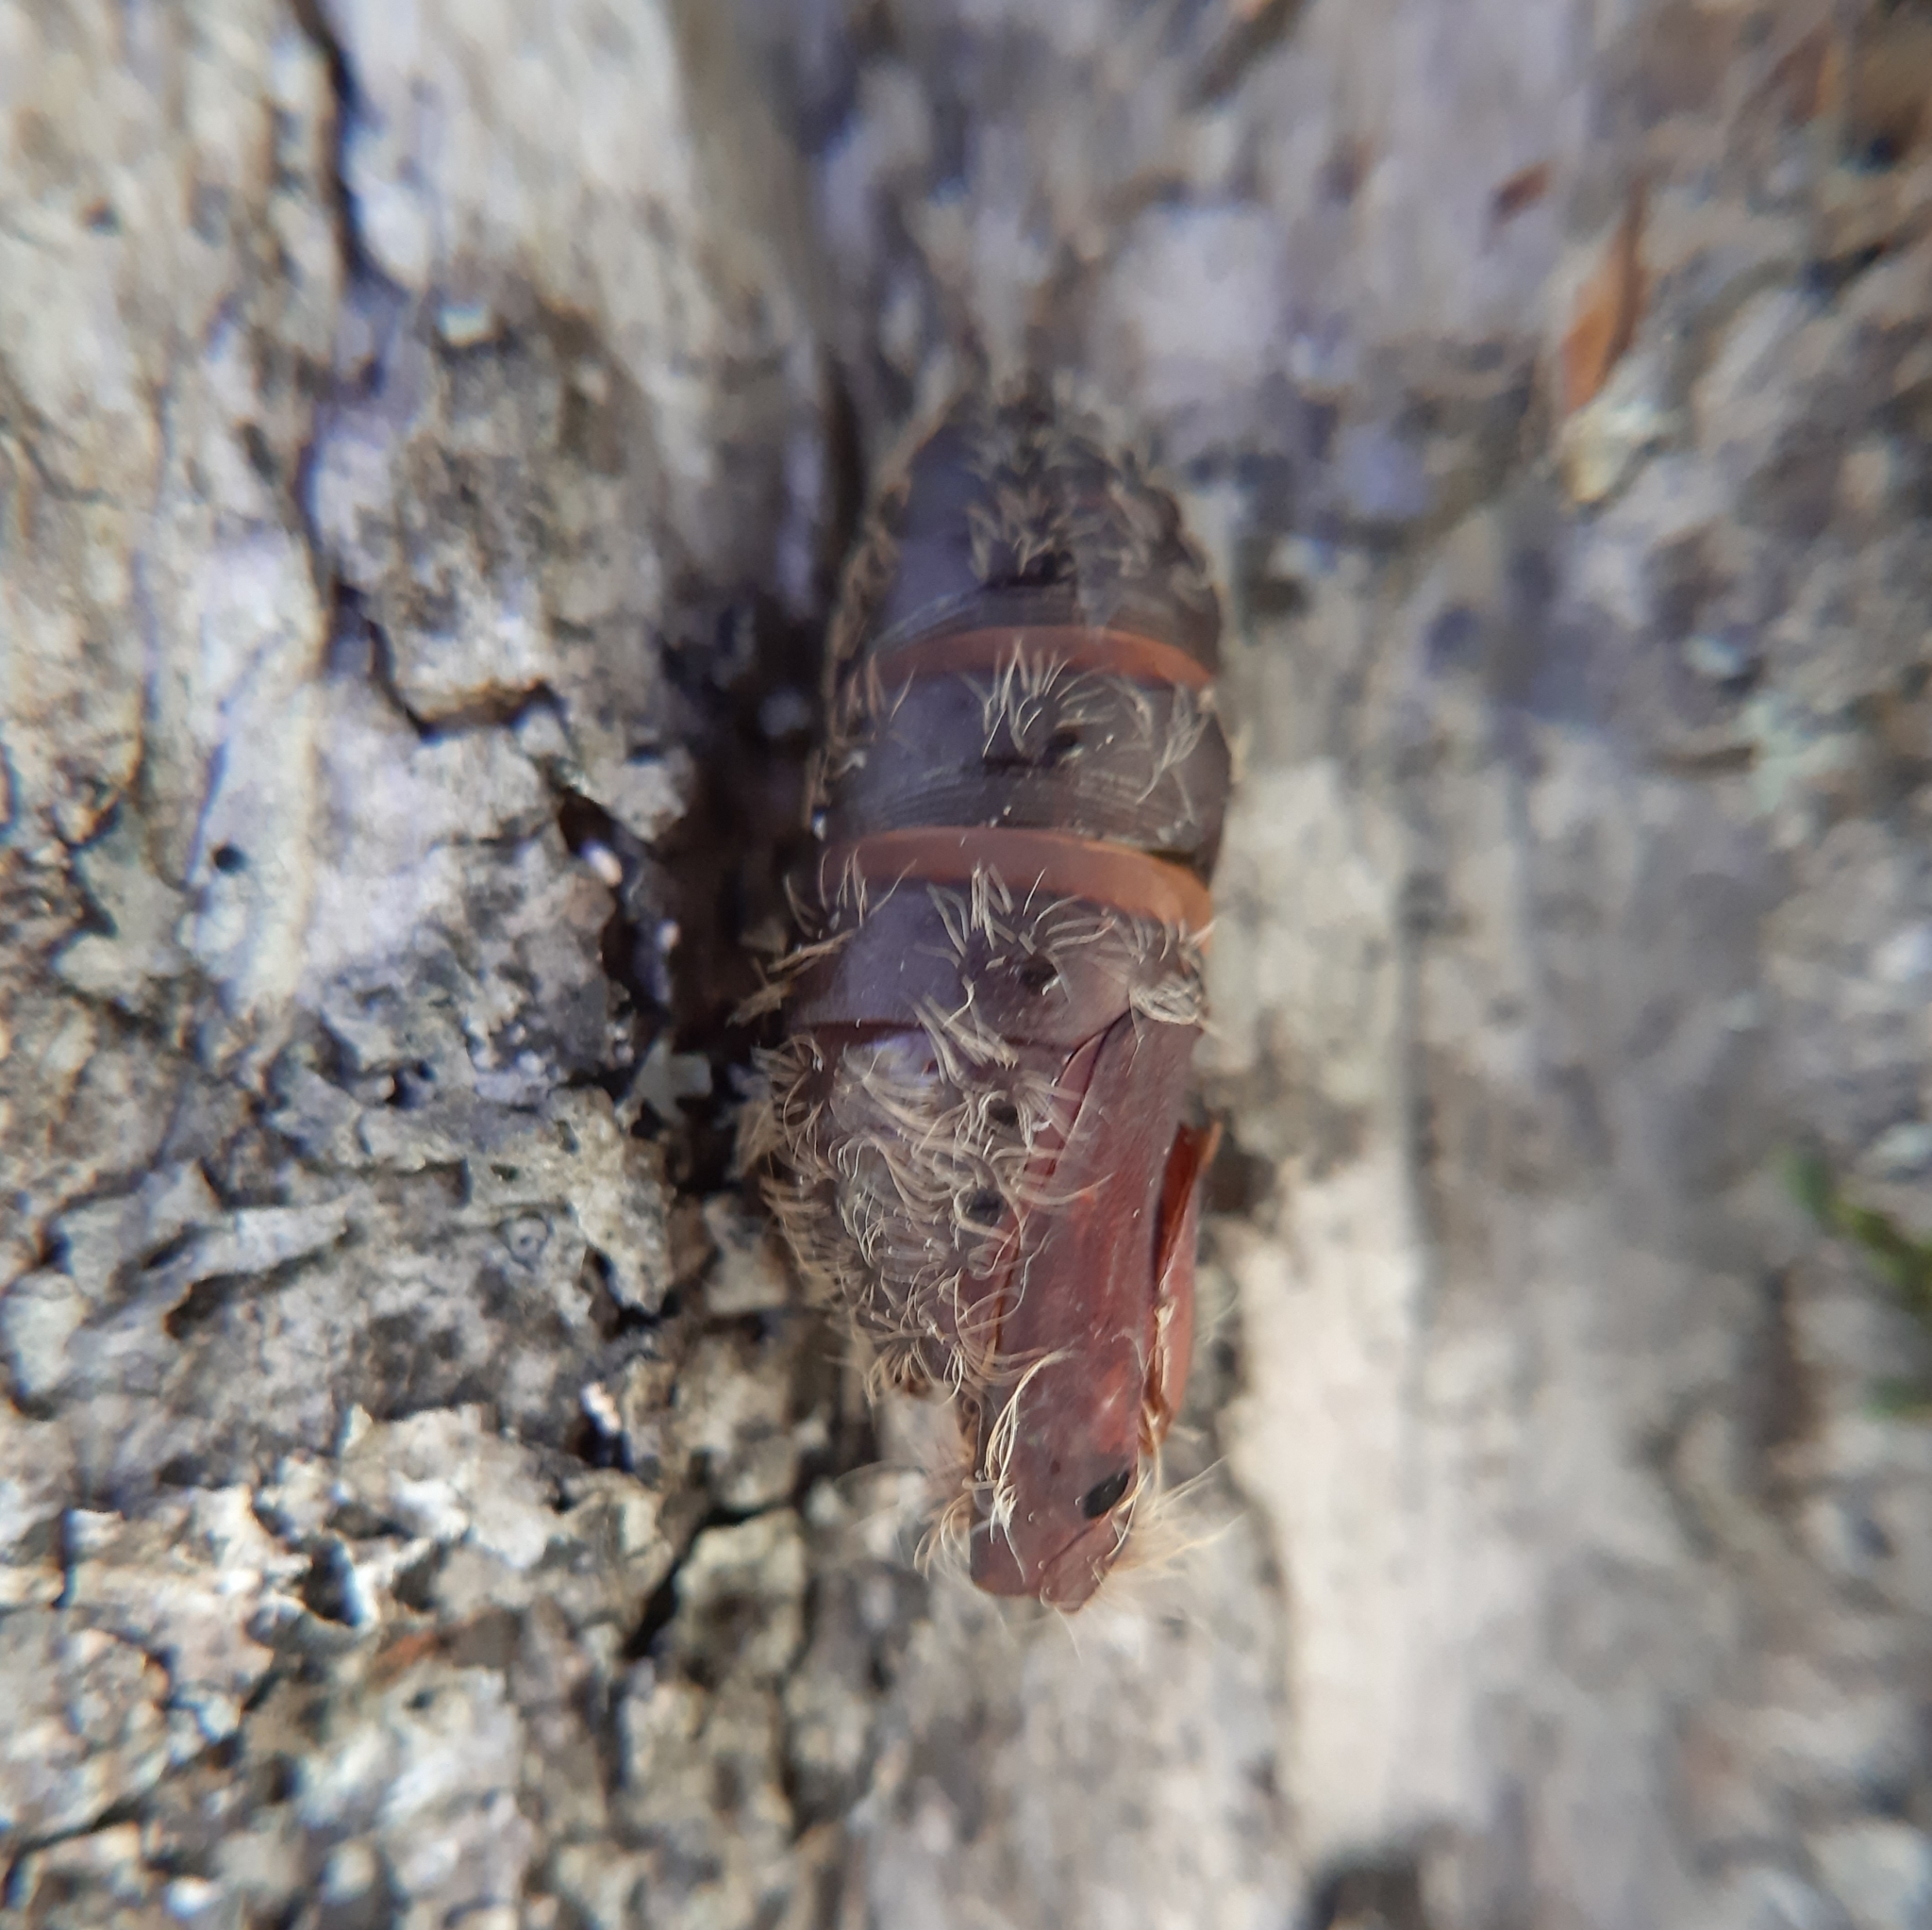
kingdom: Animalia
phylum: Arthropoda
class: Insecta
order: Lepidoptera
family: Erebidae
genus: Lymantria
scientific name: Lymantria dispar
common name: Gypsy moth
